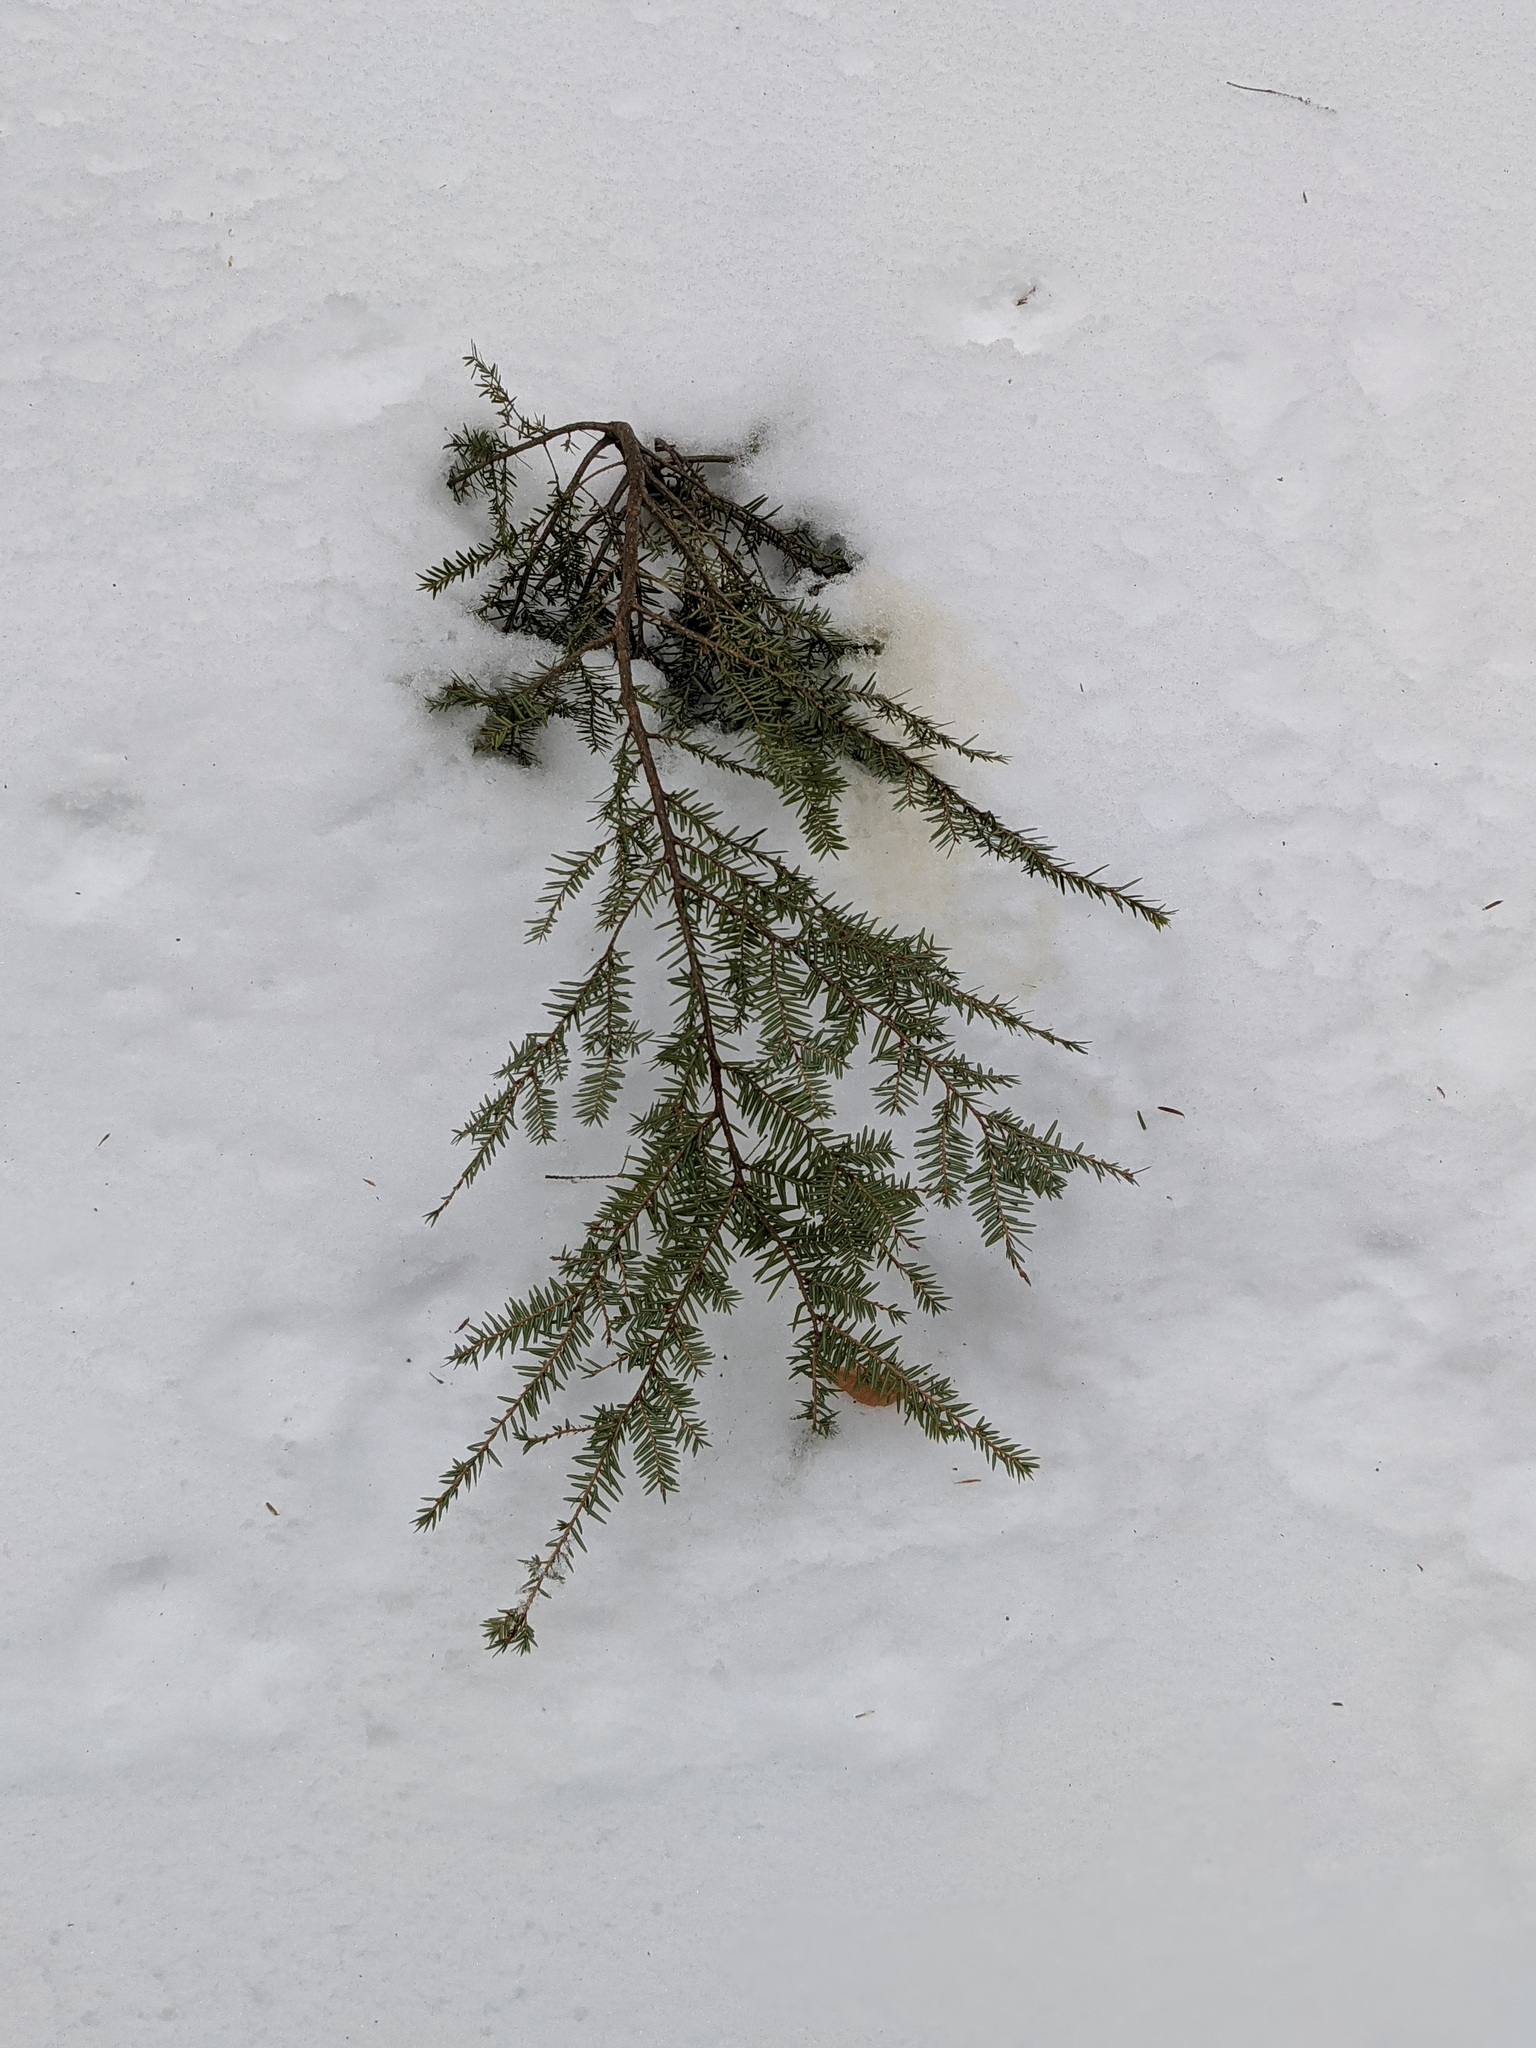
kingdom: Plantae
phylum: Tracheophyta
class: Pinopsida
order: Pinales
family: Pinaceae
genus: Tsuga
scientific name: Tsuga canadensis
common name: Eastern hemlock
